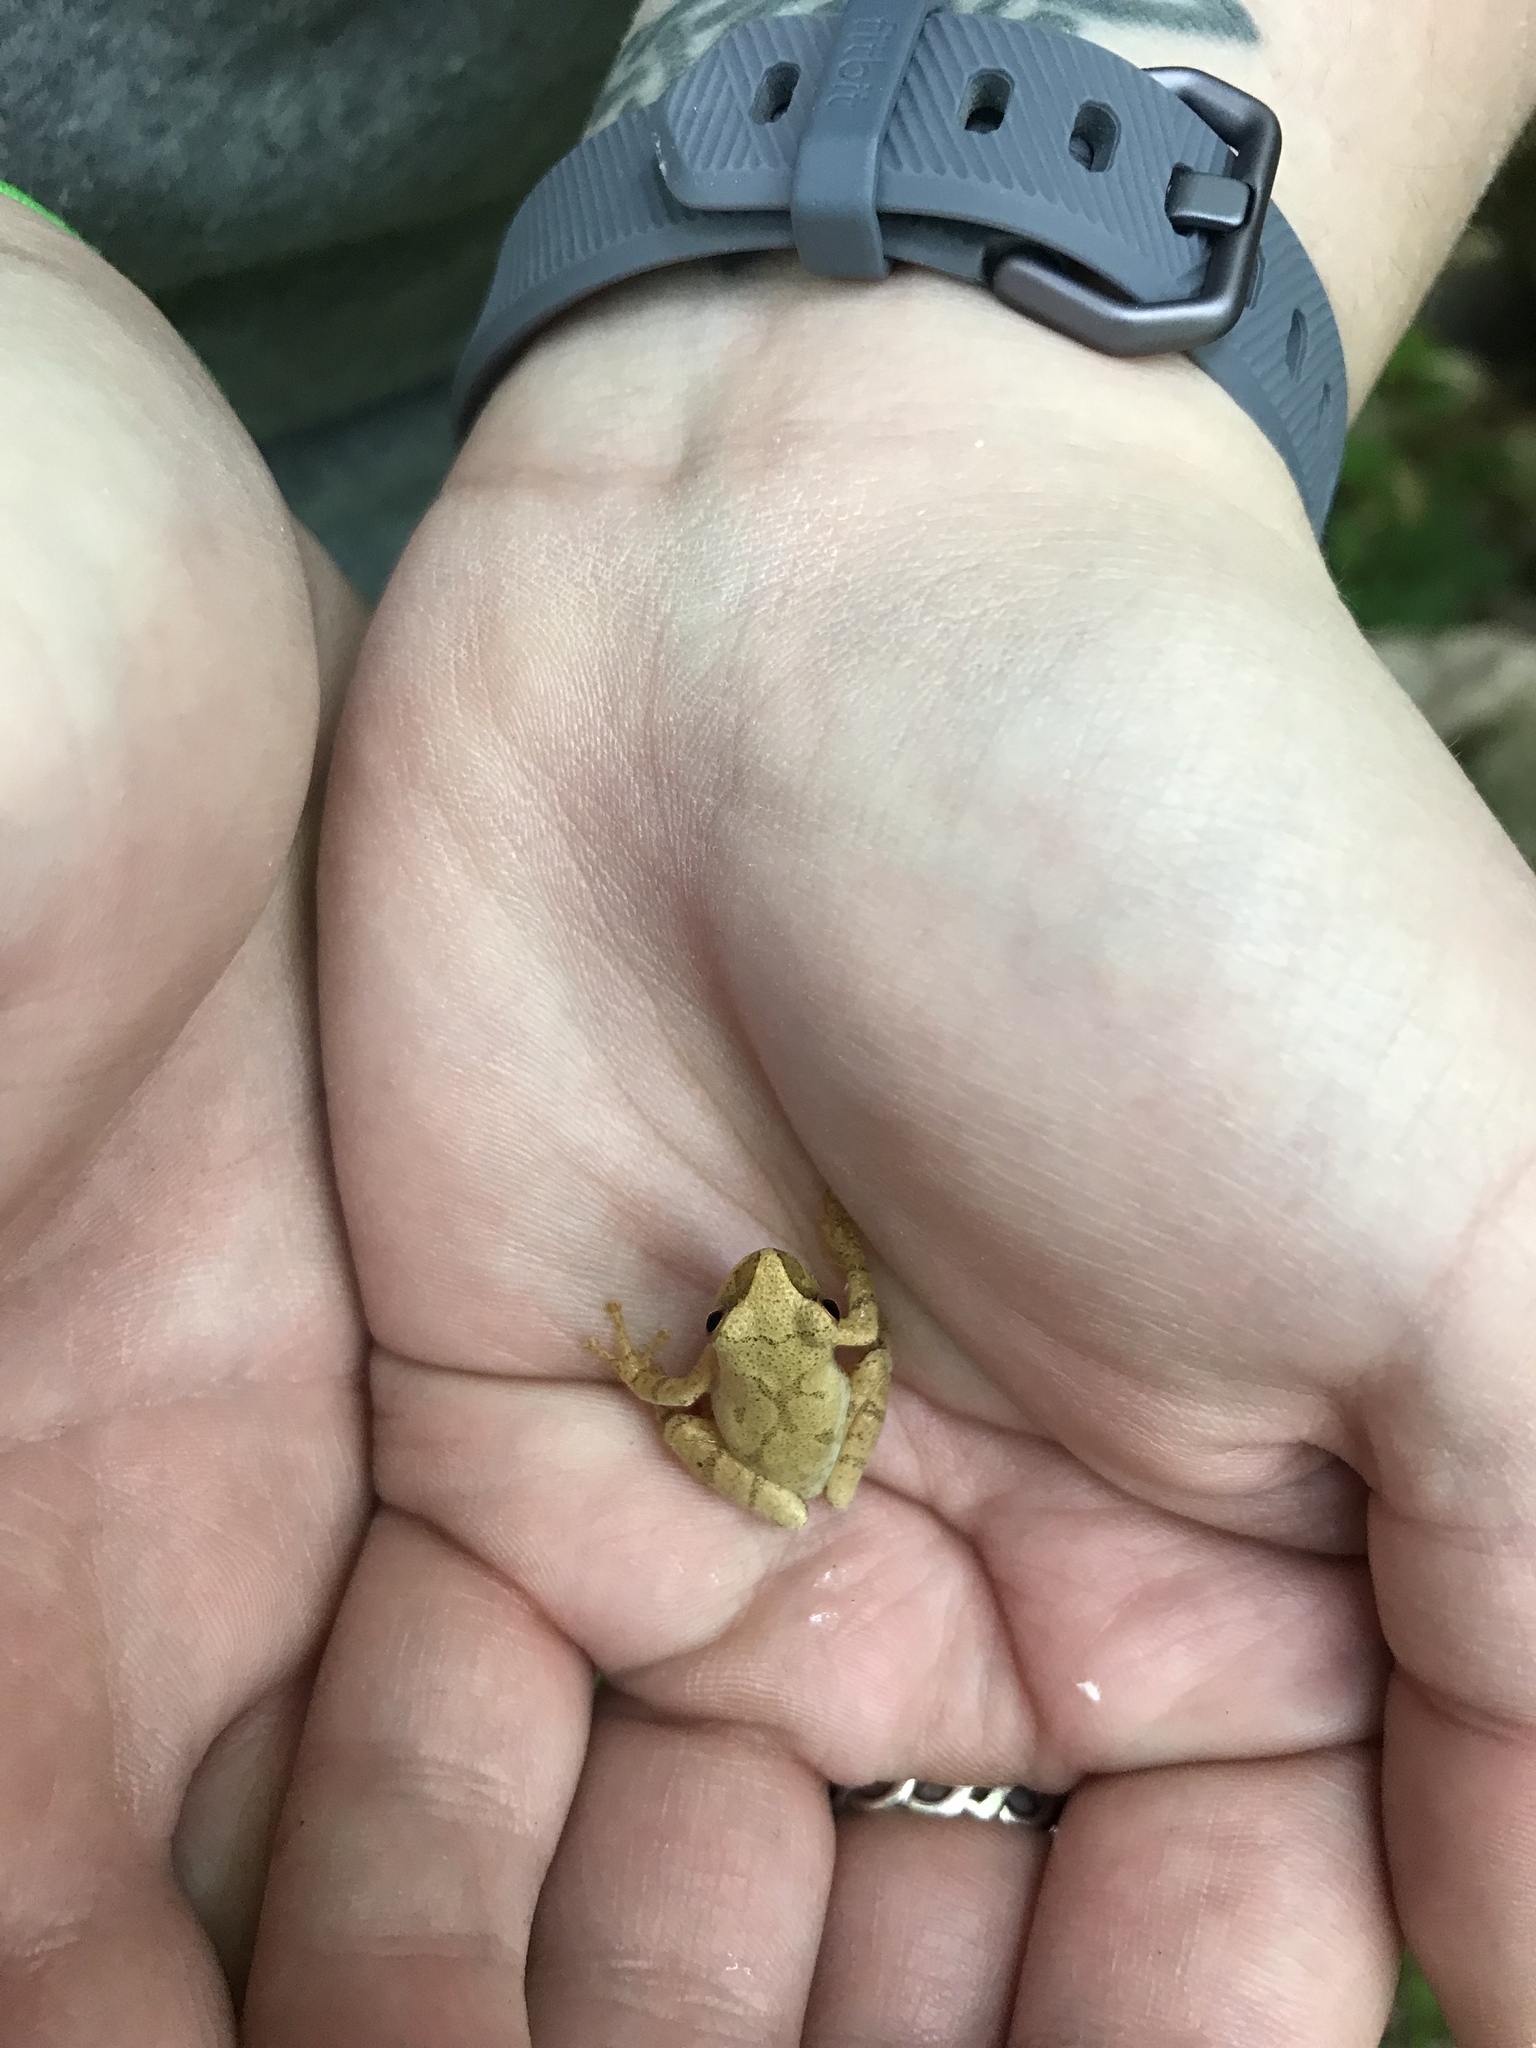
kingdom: Animalia
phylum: Chordata
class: Amphibia
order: Anura
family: Hylidae
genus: Pseudacris
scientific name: Pseudacris crucifer
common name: Spring peeper
